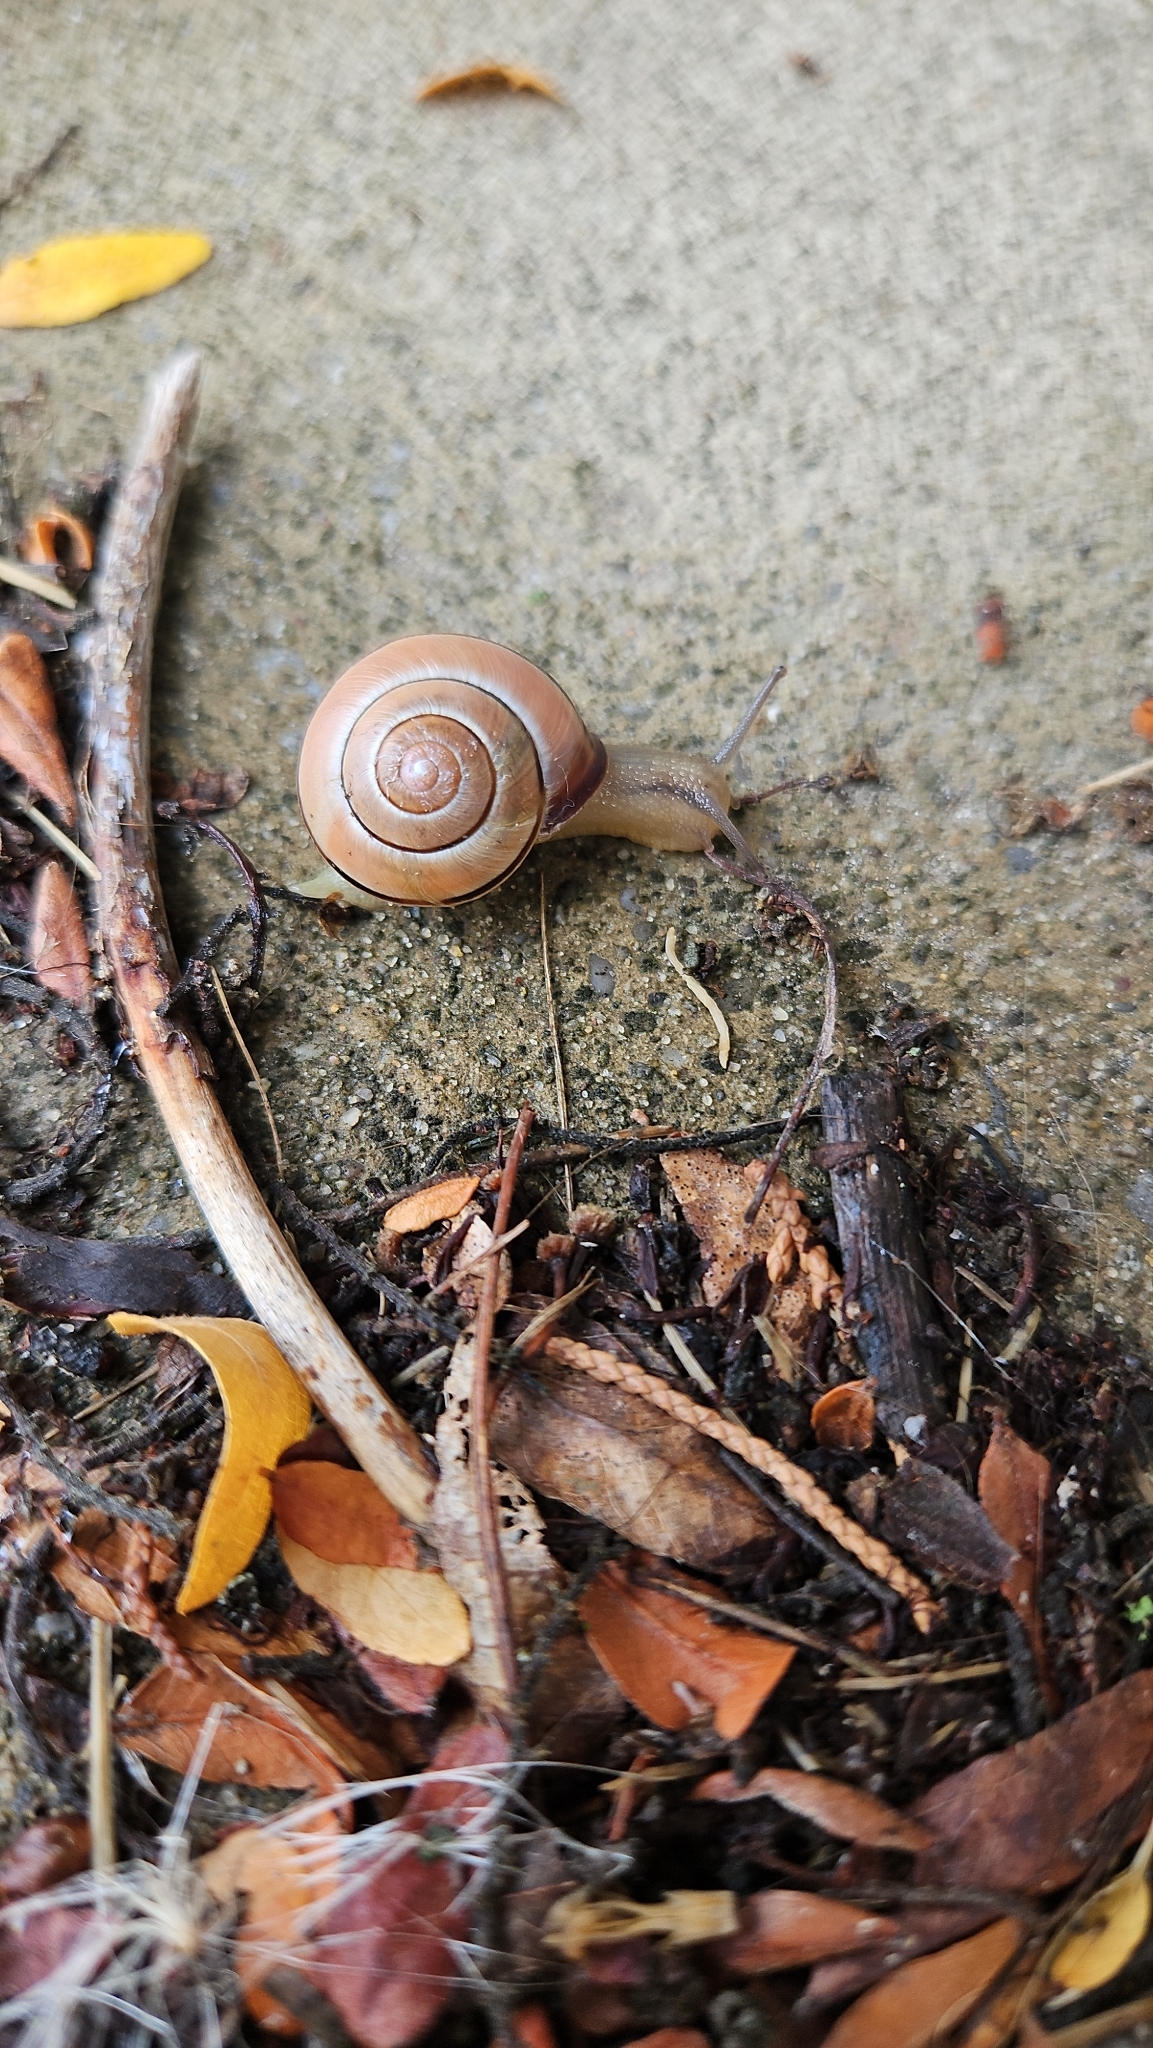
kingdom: Animalia
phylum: Mollusca
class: Gastropoda
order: Stylommatophora
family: Helicidae
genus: Cepaea
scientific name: Cepaea nemoralis
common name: Grovesnail
